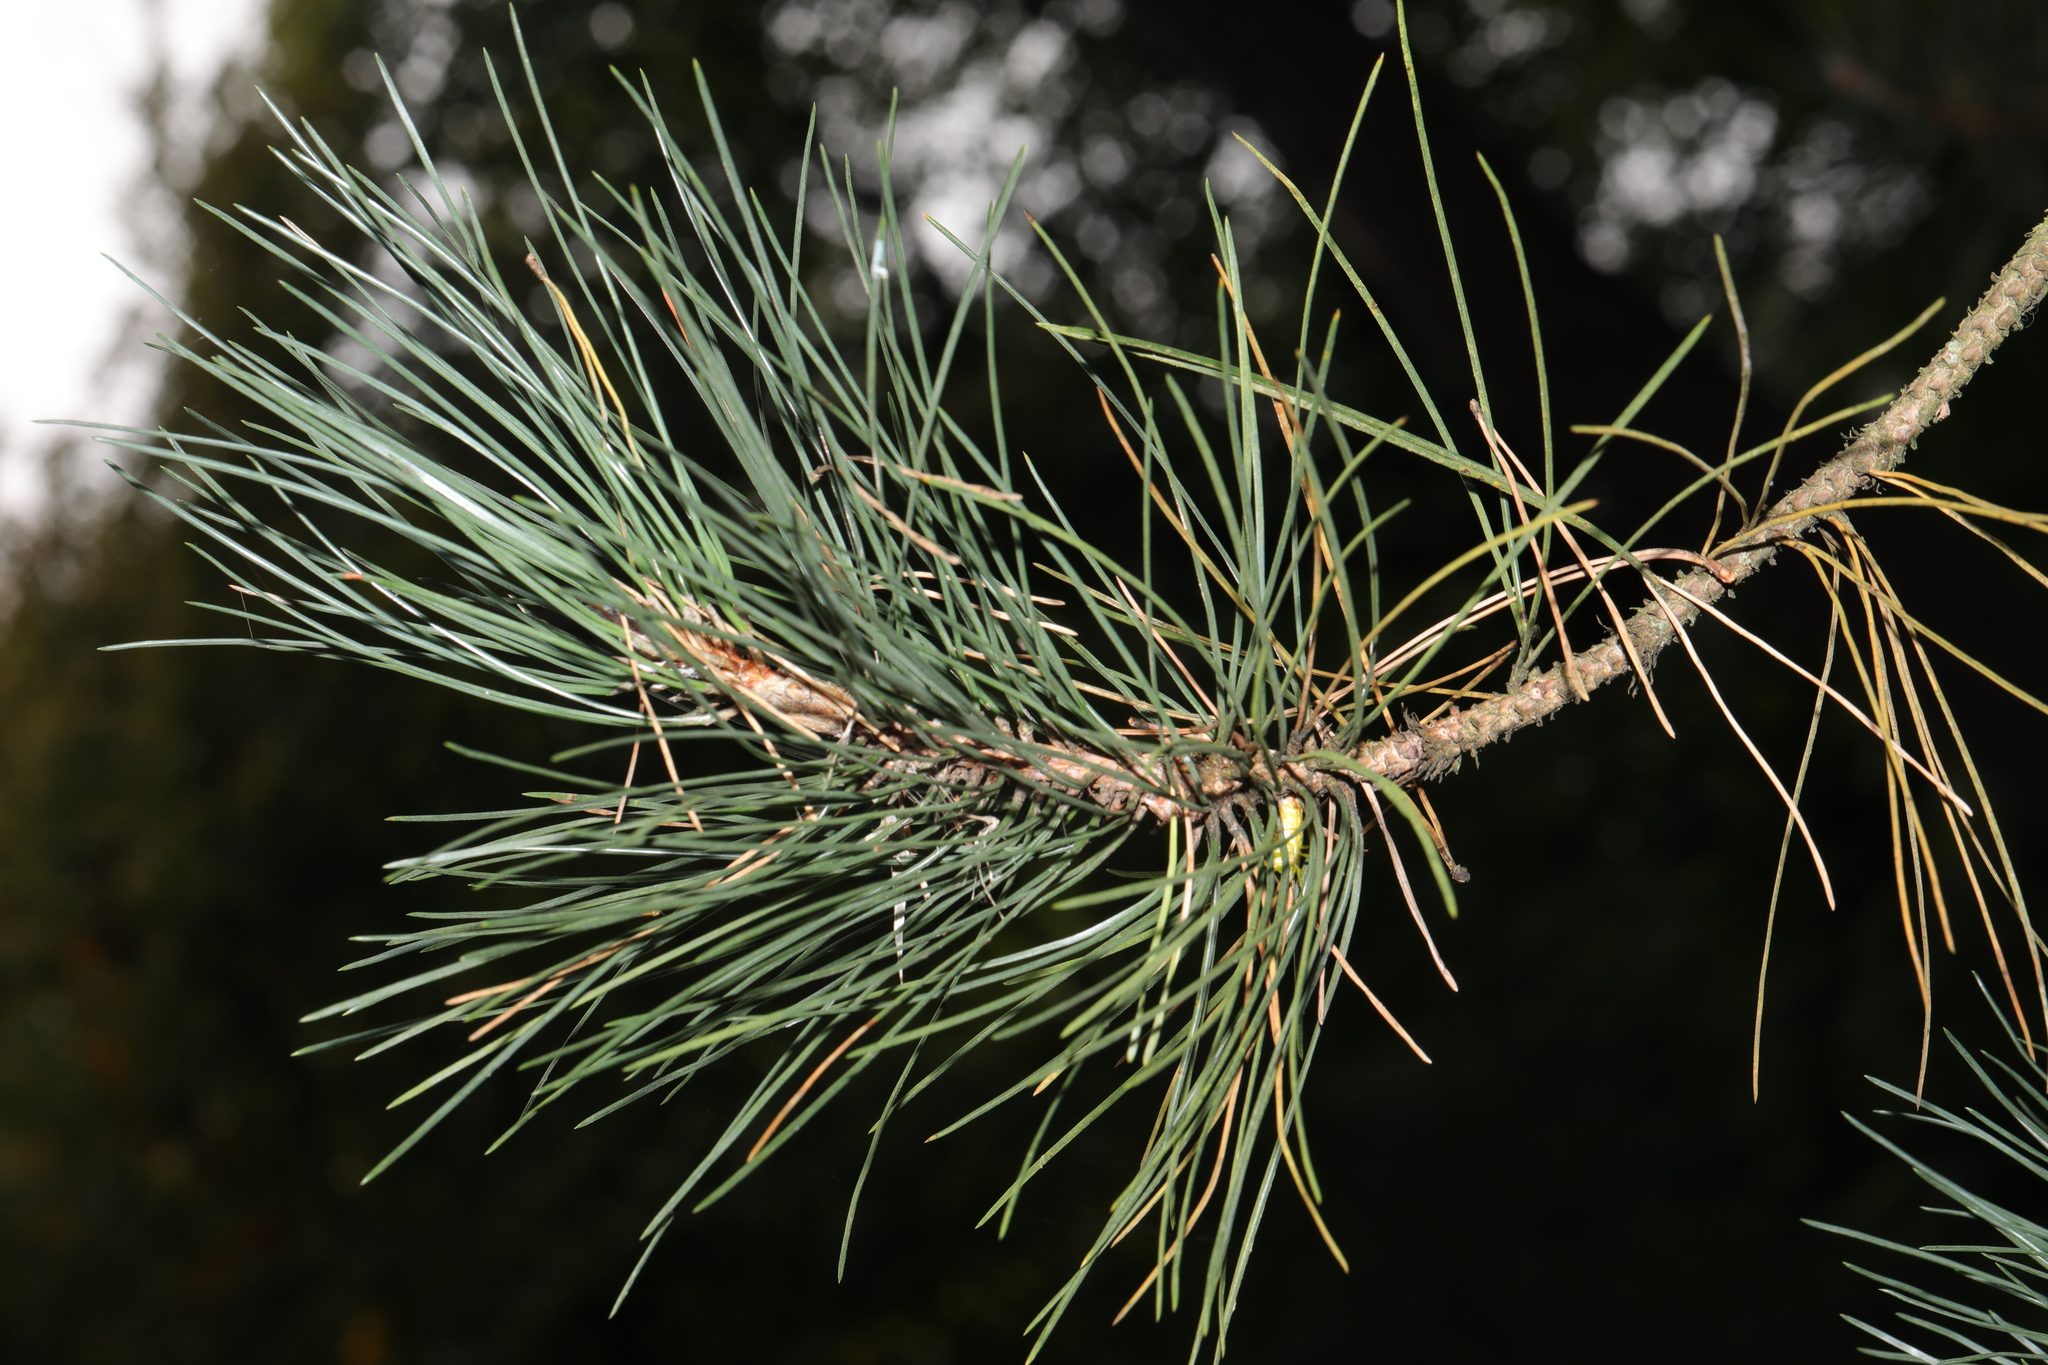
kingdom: Plantae
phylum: Tracheophyta
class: Pinopsida
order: Pinales
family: Pinaceae
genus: Pinus
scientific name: Pinus sylvestris
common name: Scots pine
